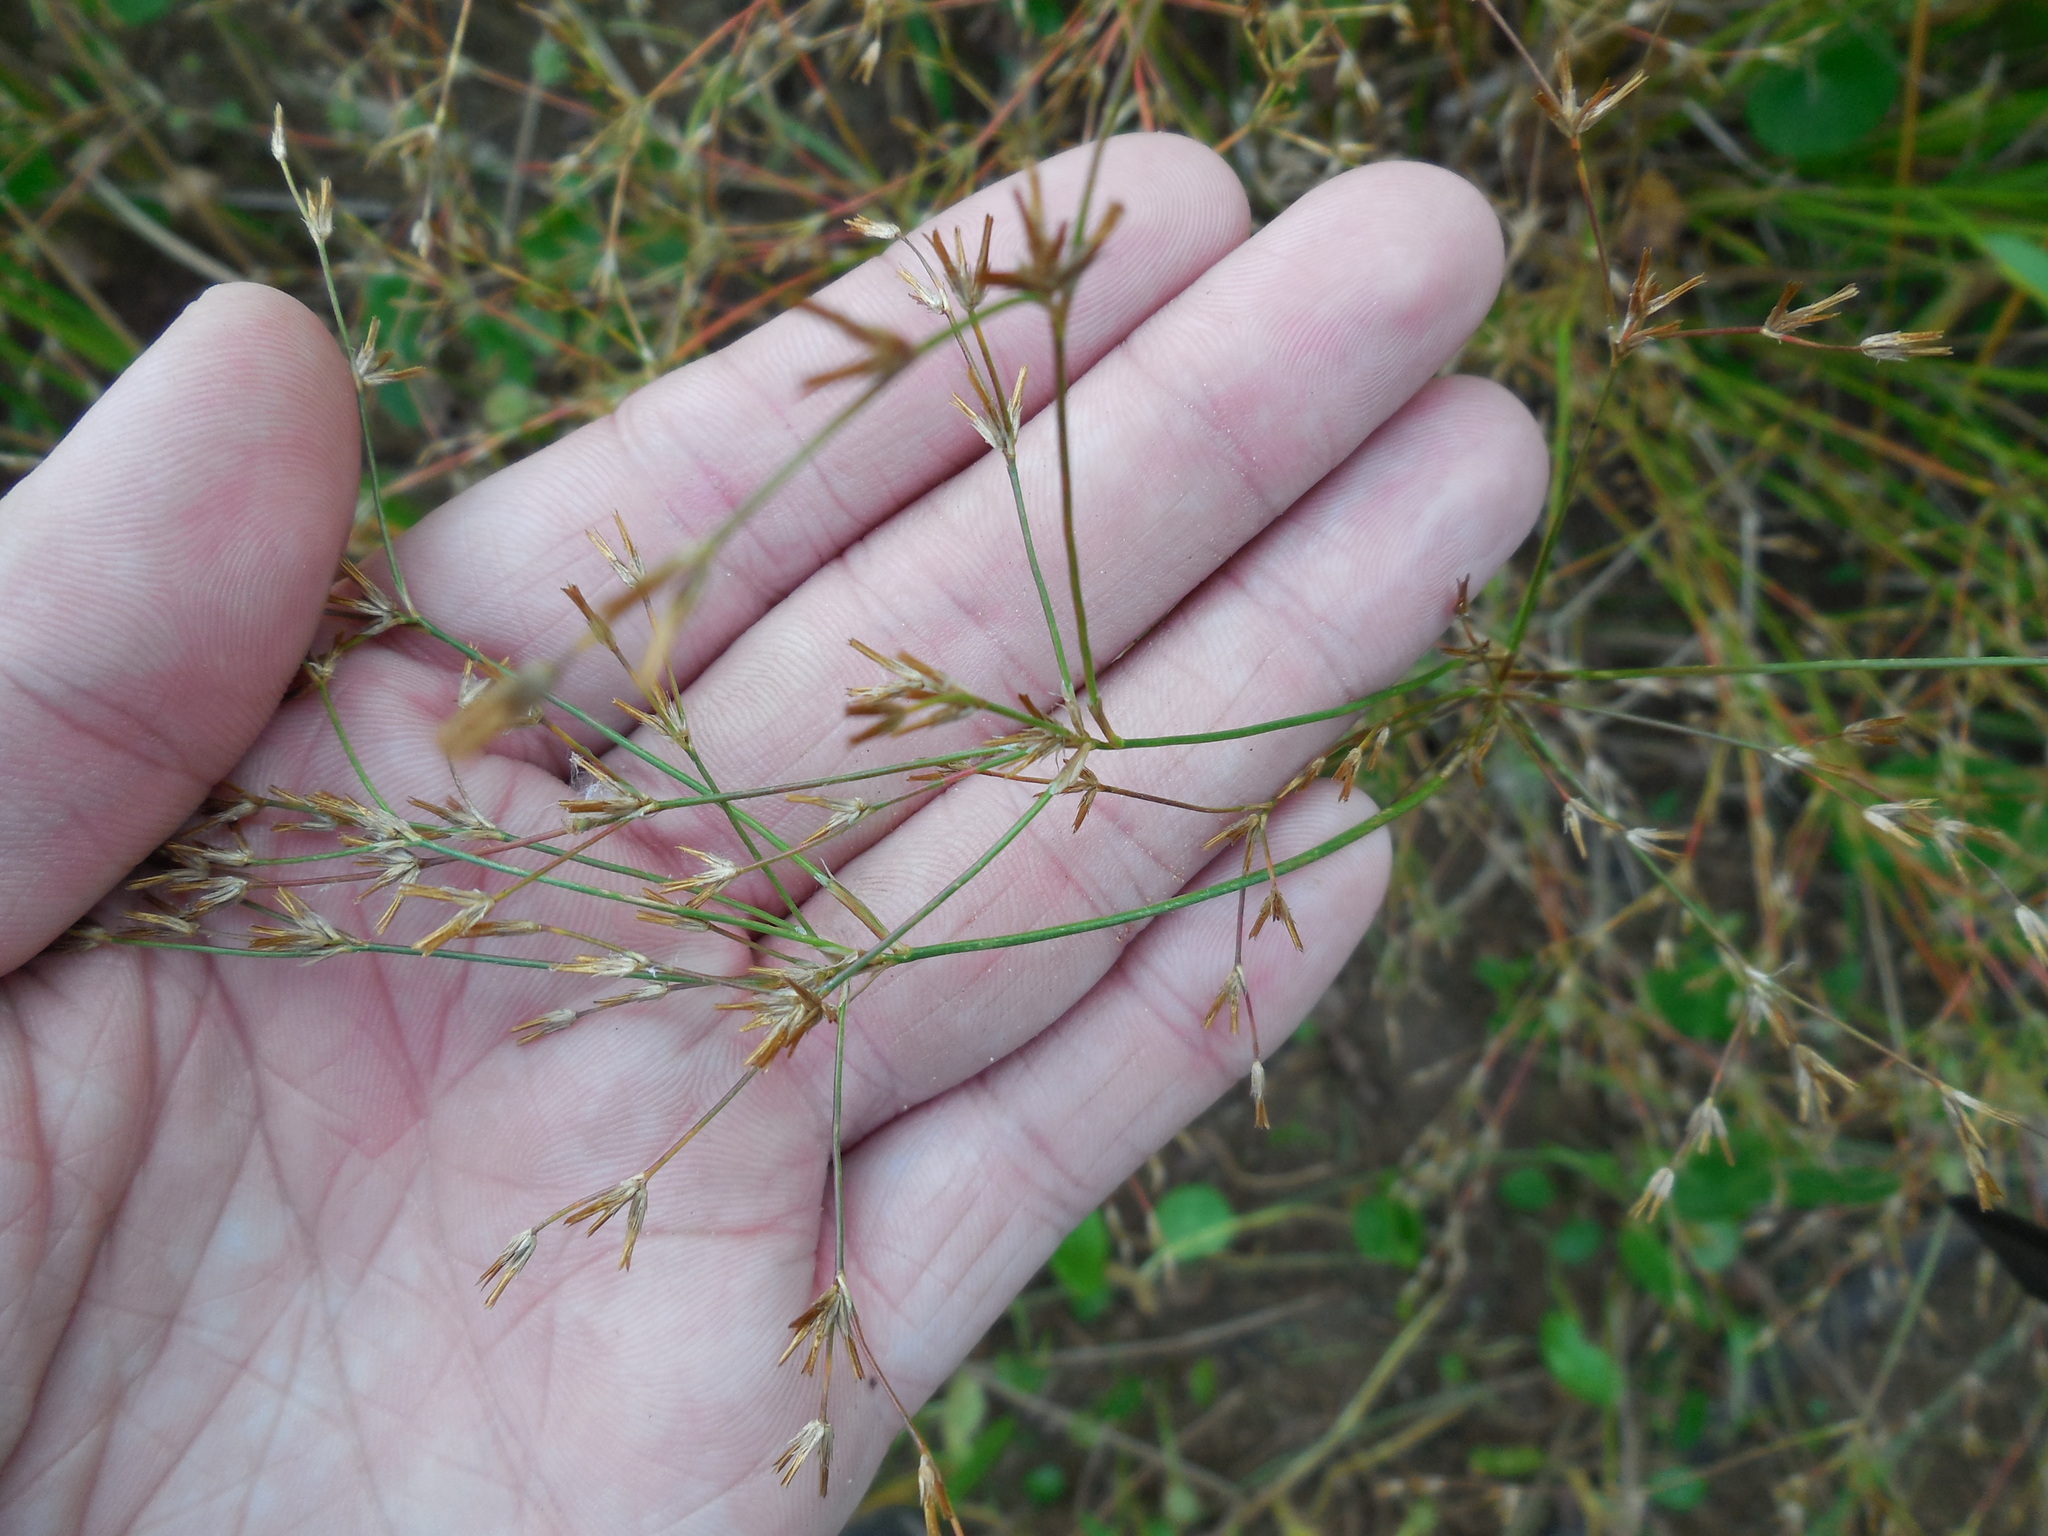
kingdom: Plantae
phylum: Tracheophyta
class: Liliopsida
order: Poales
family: Juncaceae
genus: Juncus
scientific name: Juncus diffusissimus
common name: Slimpod rush
